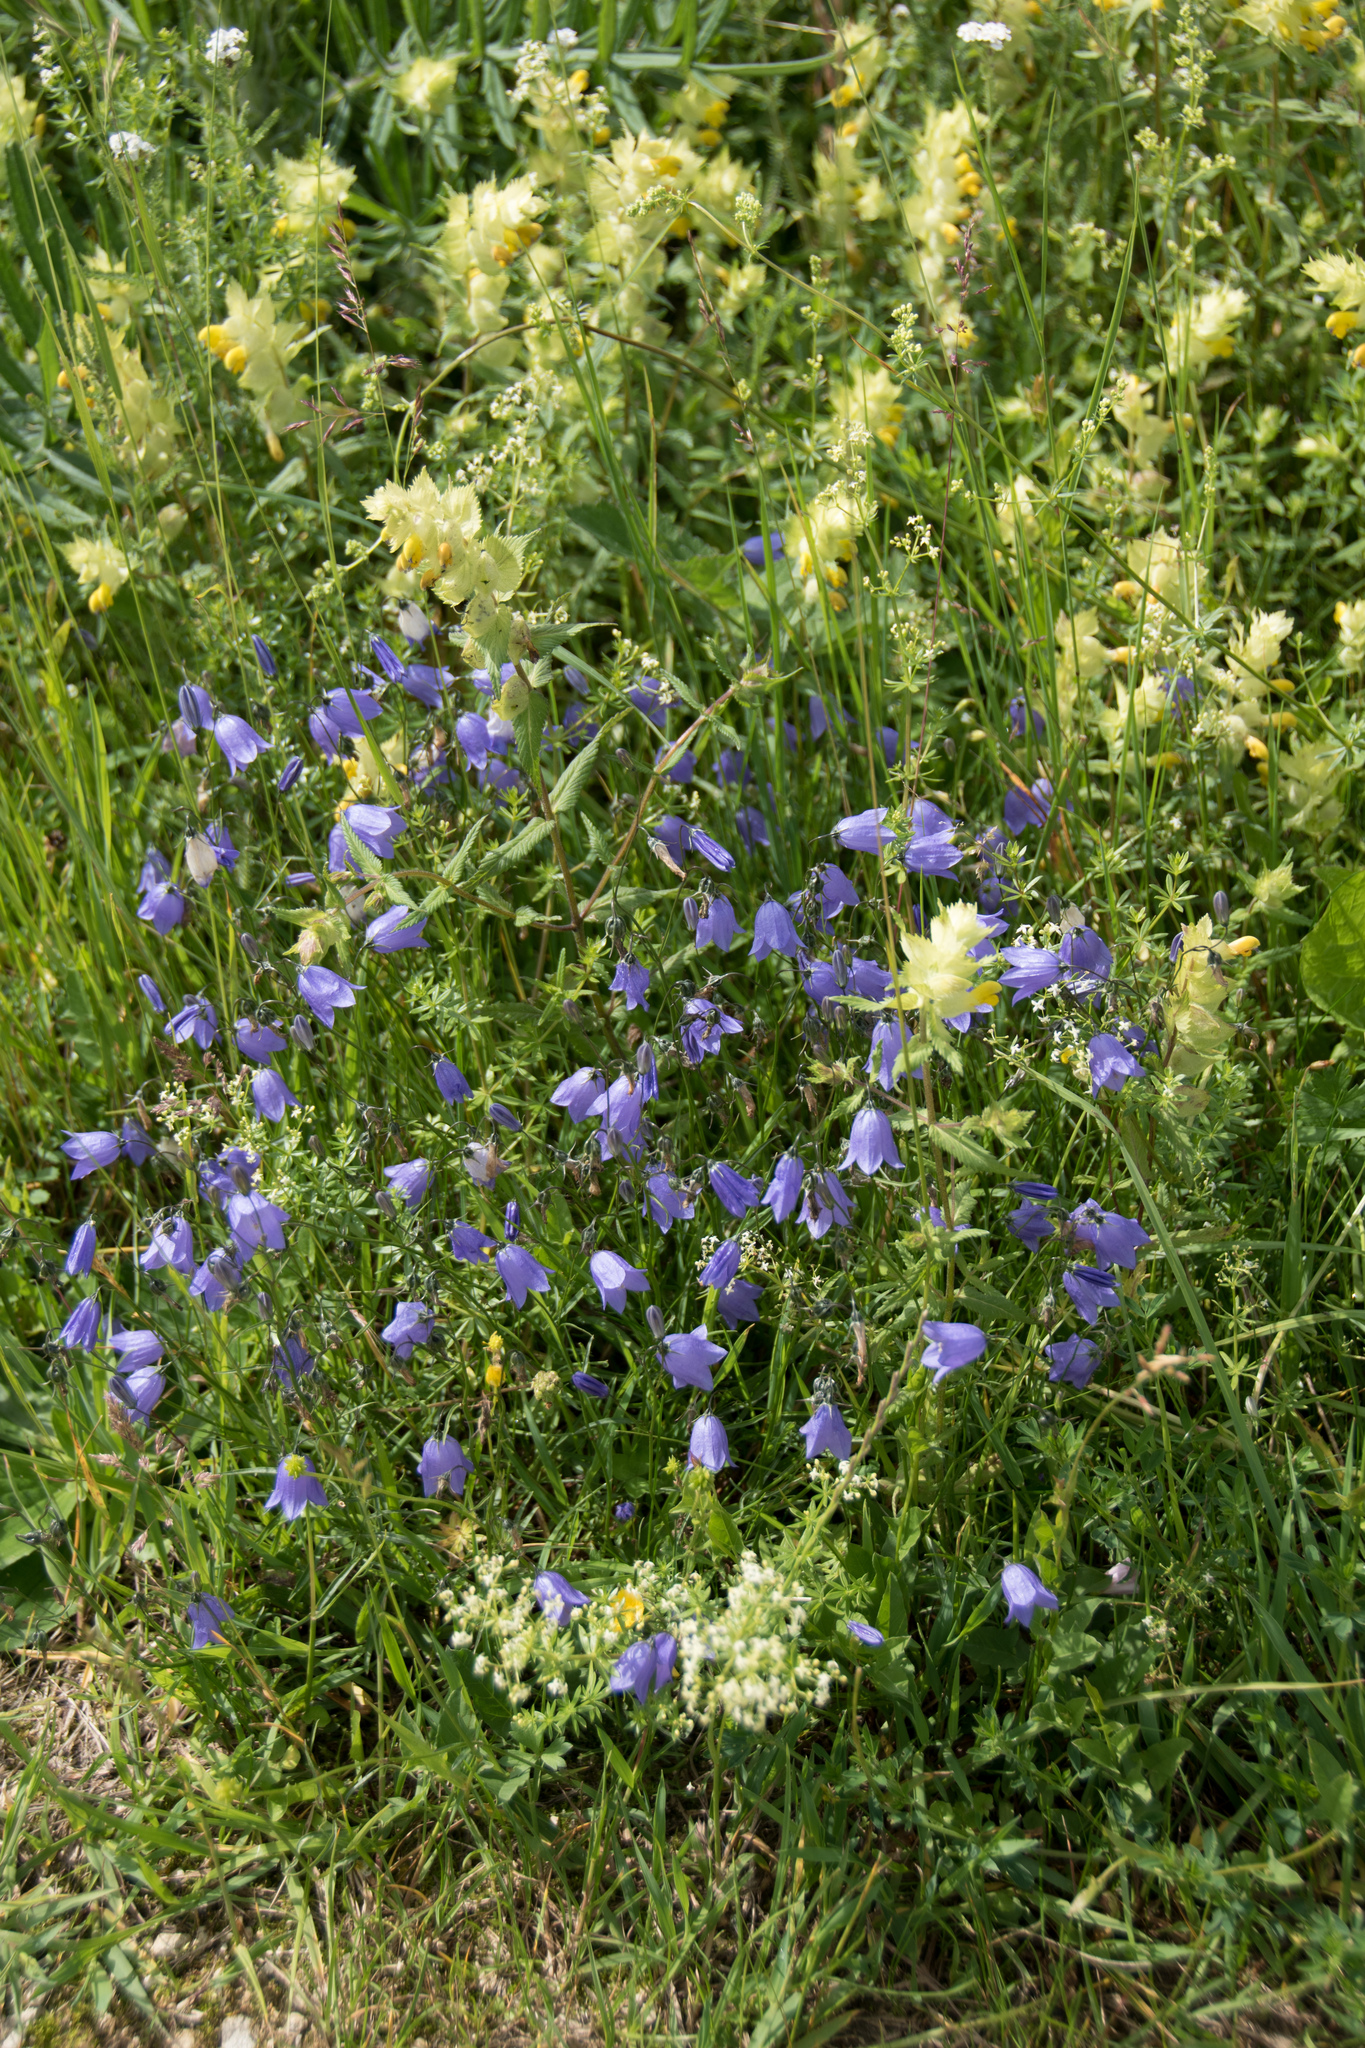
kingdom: Plantae
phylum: Tracheophyta
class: Magnoliopsida
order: Asterales
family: Campanulaceae
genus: Campanula
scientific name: Campanula rotundifolia
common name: Harebell
